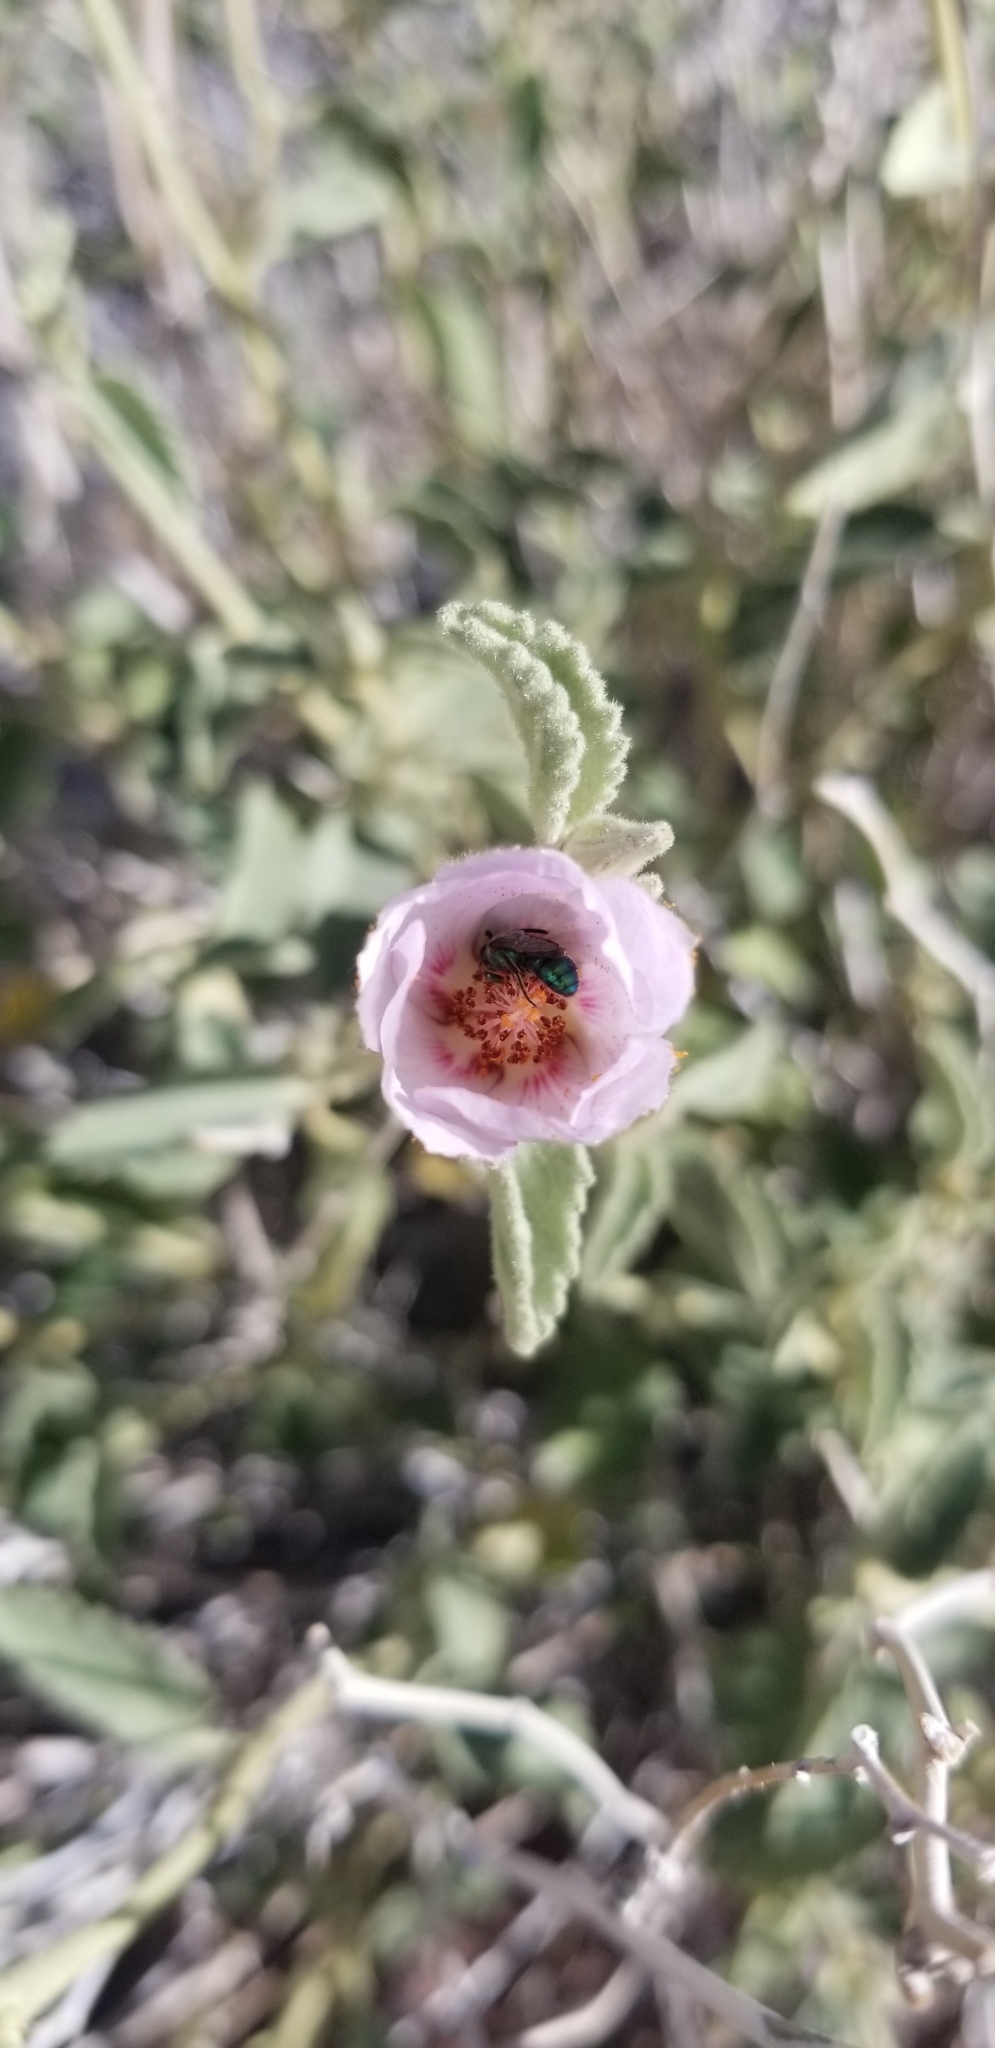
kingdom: Plantae
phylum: Tracheophyta
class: Magnoliopsida
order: Malvales
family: Malvaceae
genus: Hibiscus
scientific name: Hibiscus denudatus
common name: Paleface
